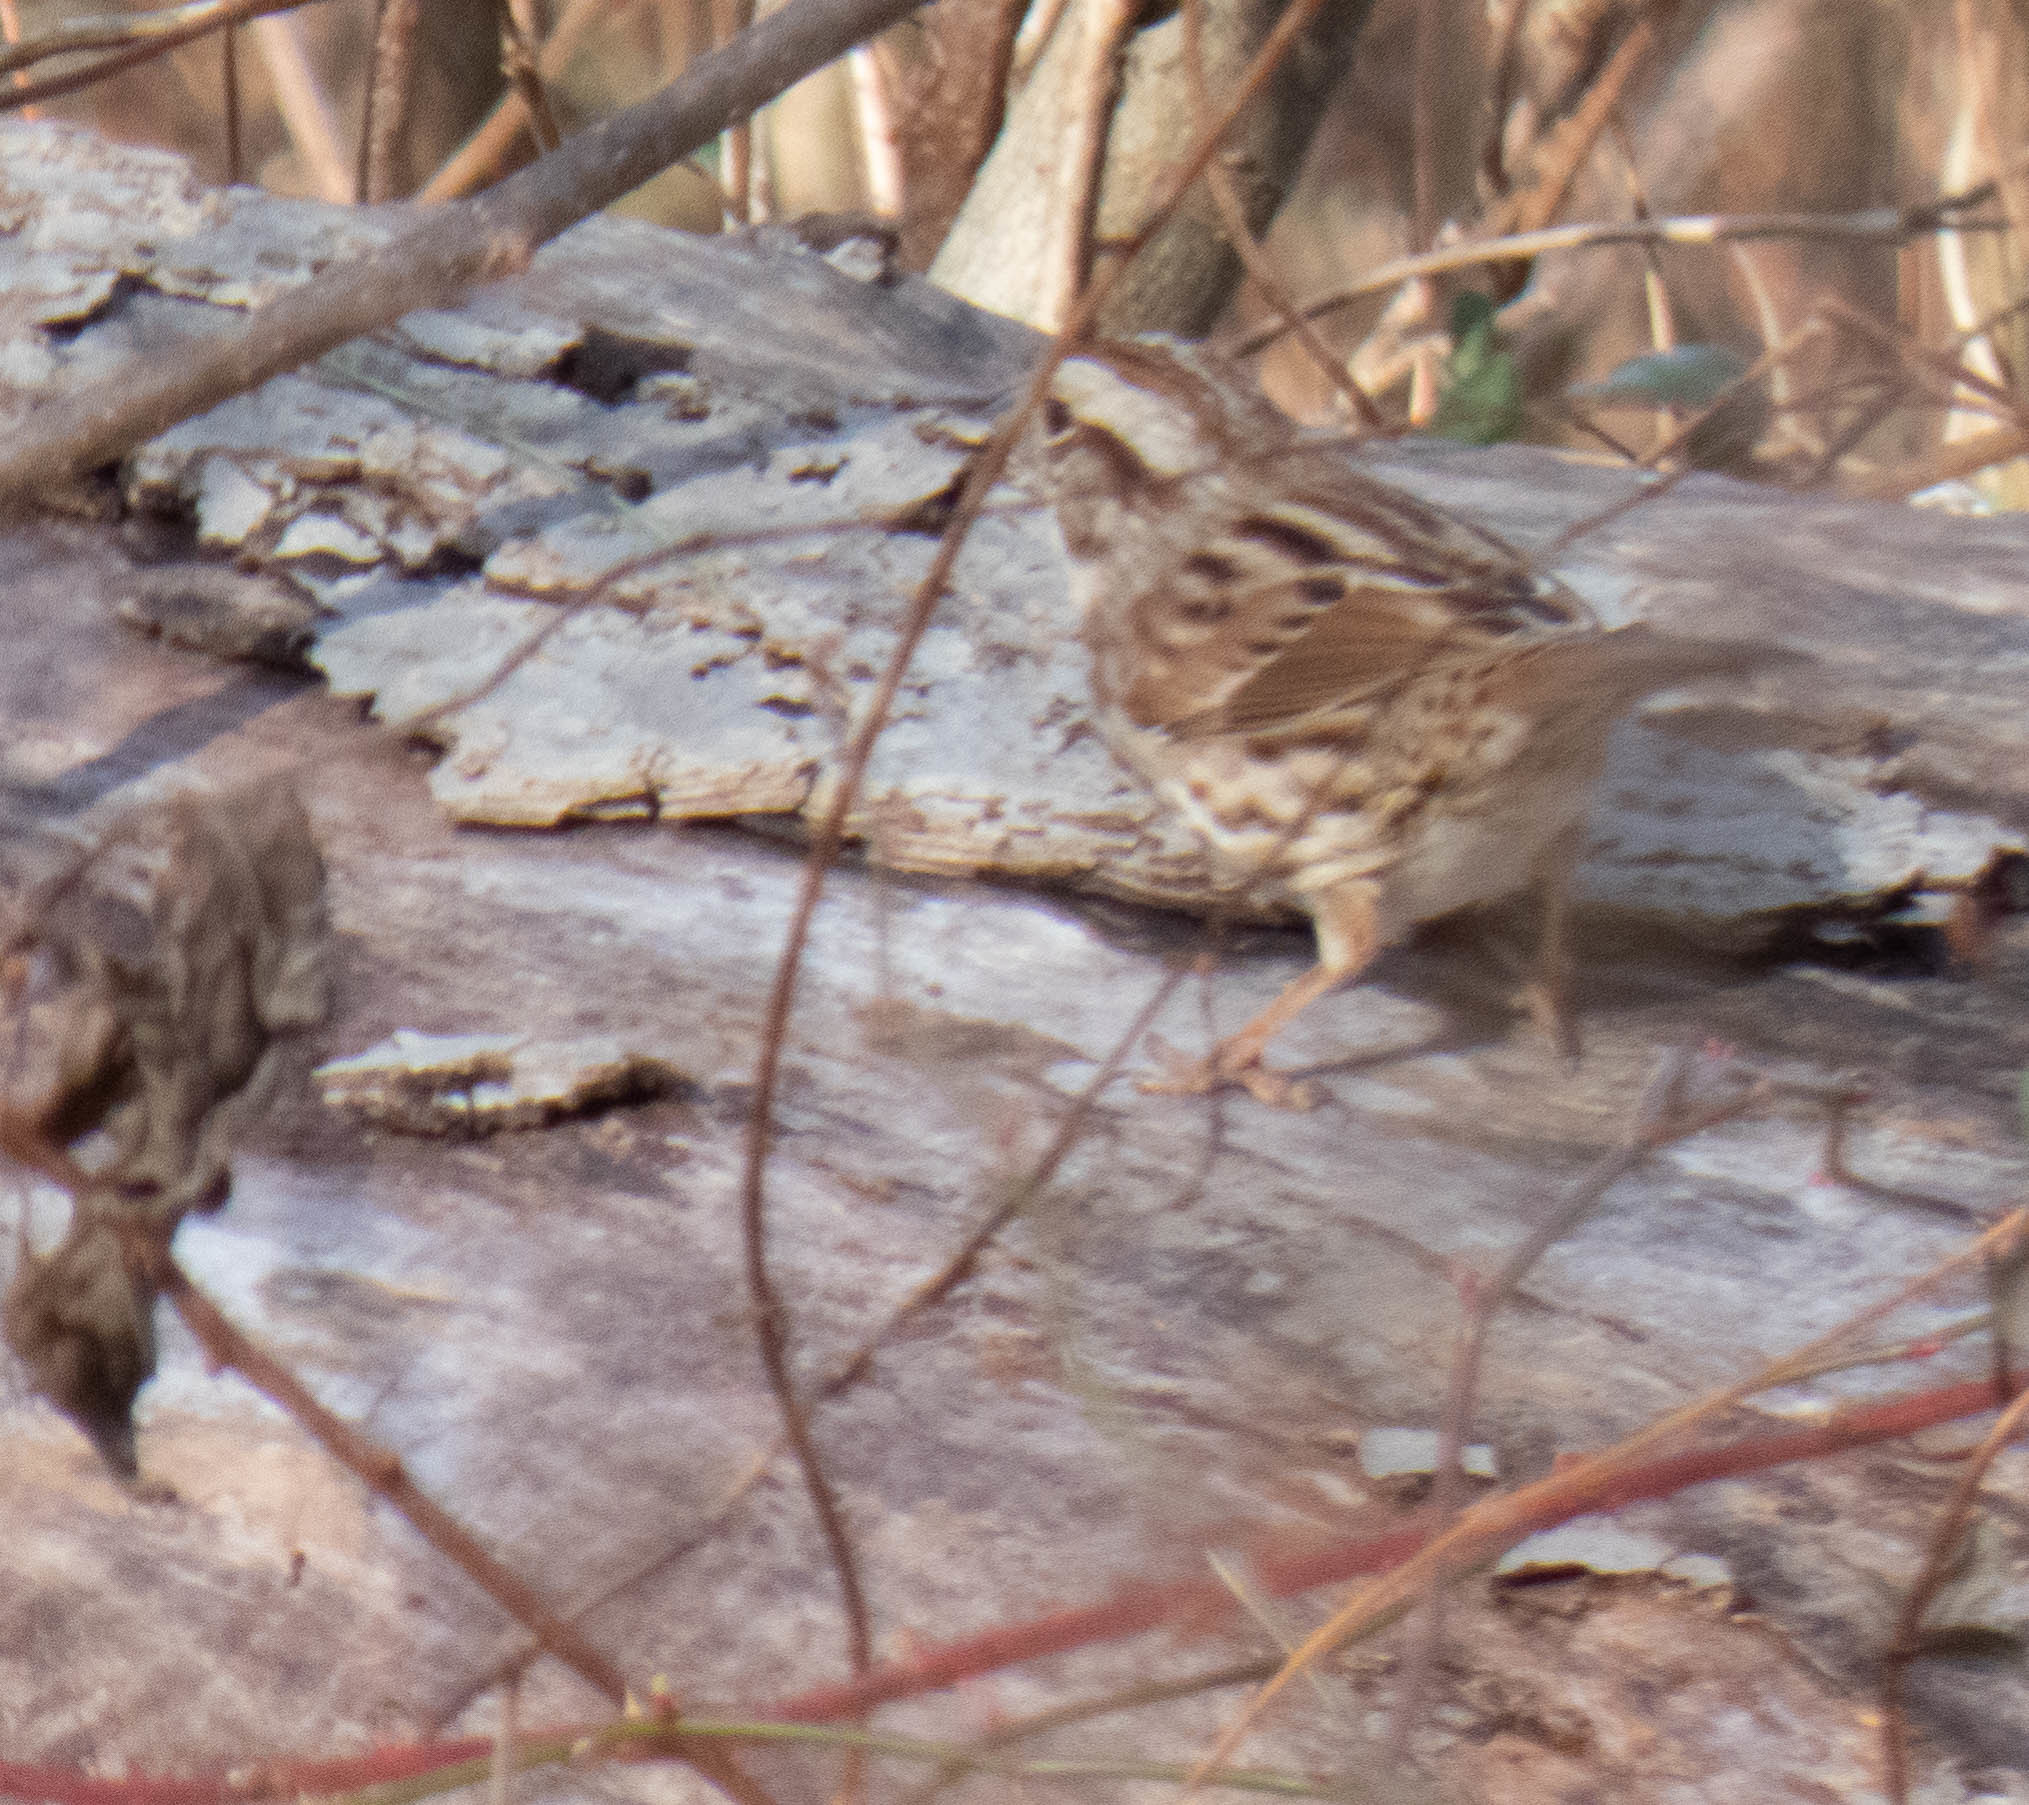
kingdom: Animalia
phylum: Chordata
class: Aves
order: Passeriformes
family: Passerellidae
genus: Melospiza
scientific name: Melospiza melodia
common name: Song sparrow
